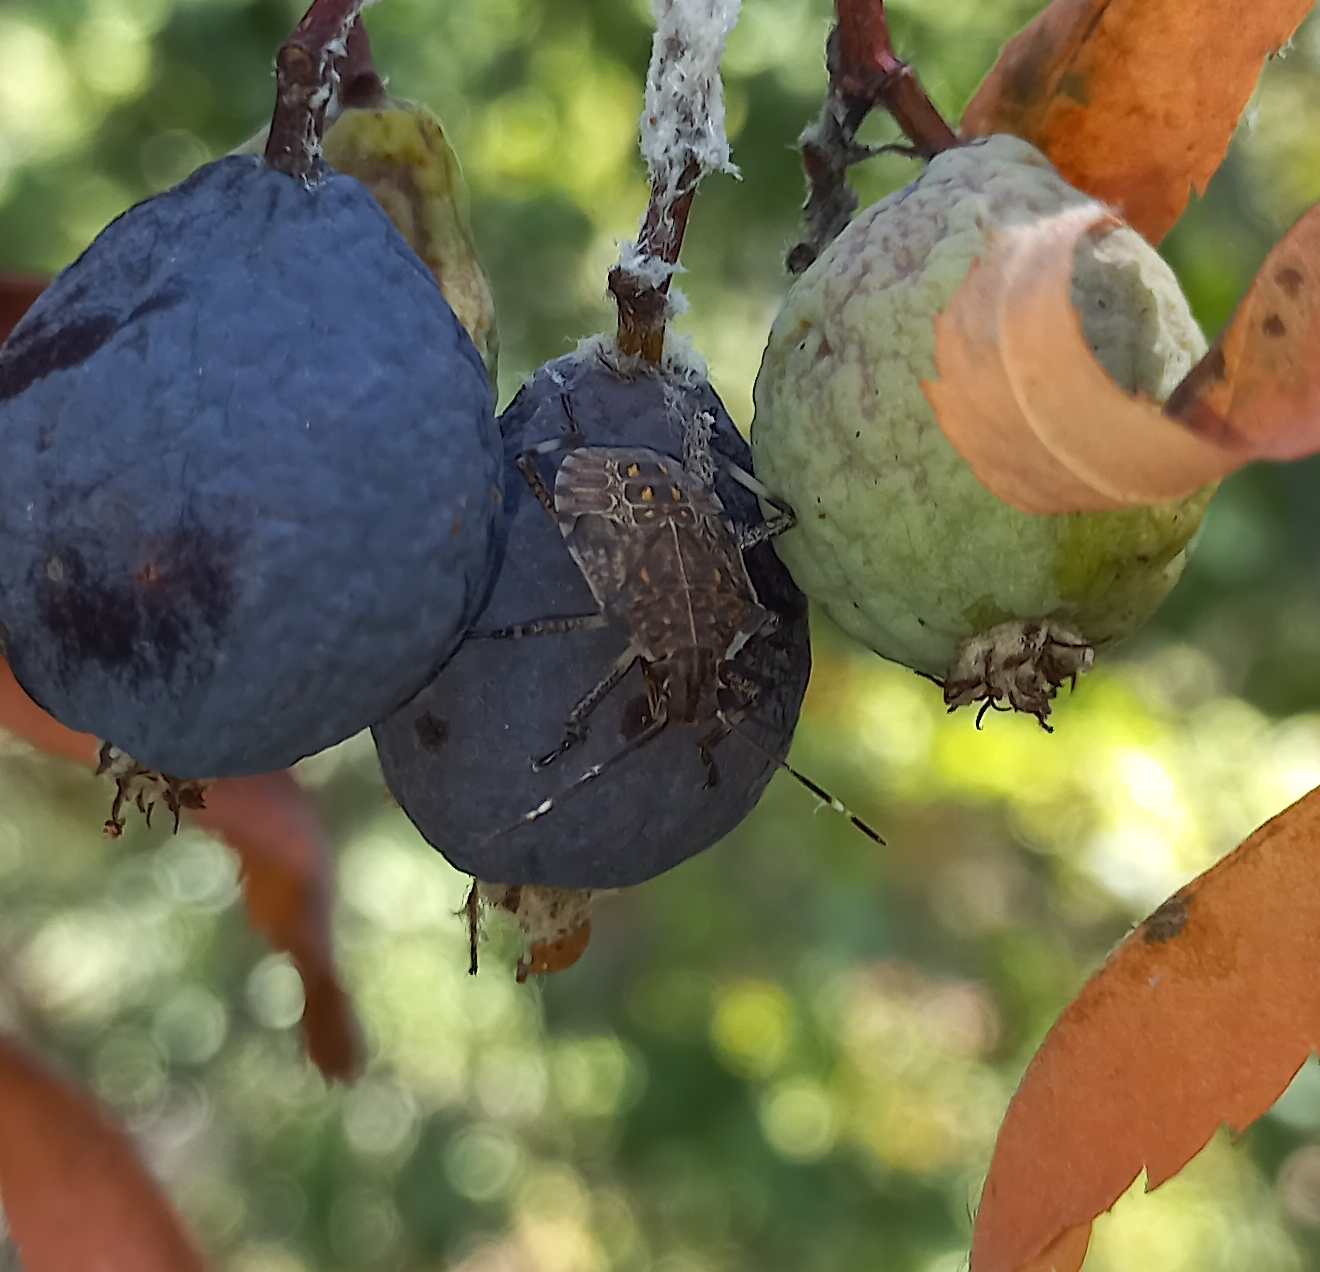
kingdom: Animalia
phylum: Arthropoda
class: Insecta
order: Hemiptera
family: Pentatomidae
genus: Halyomorpha
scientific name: Halyomorpha halys
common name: Brown marmorated stink bug
